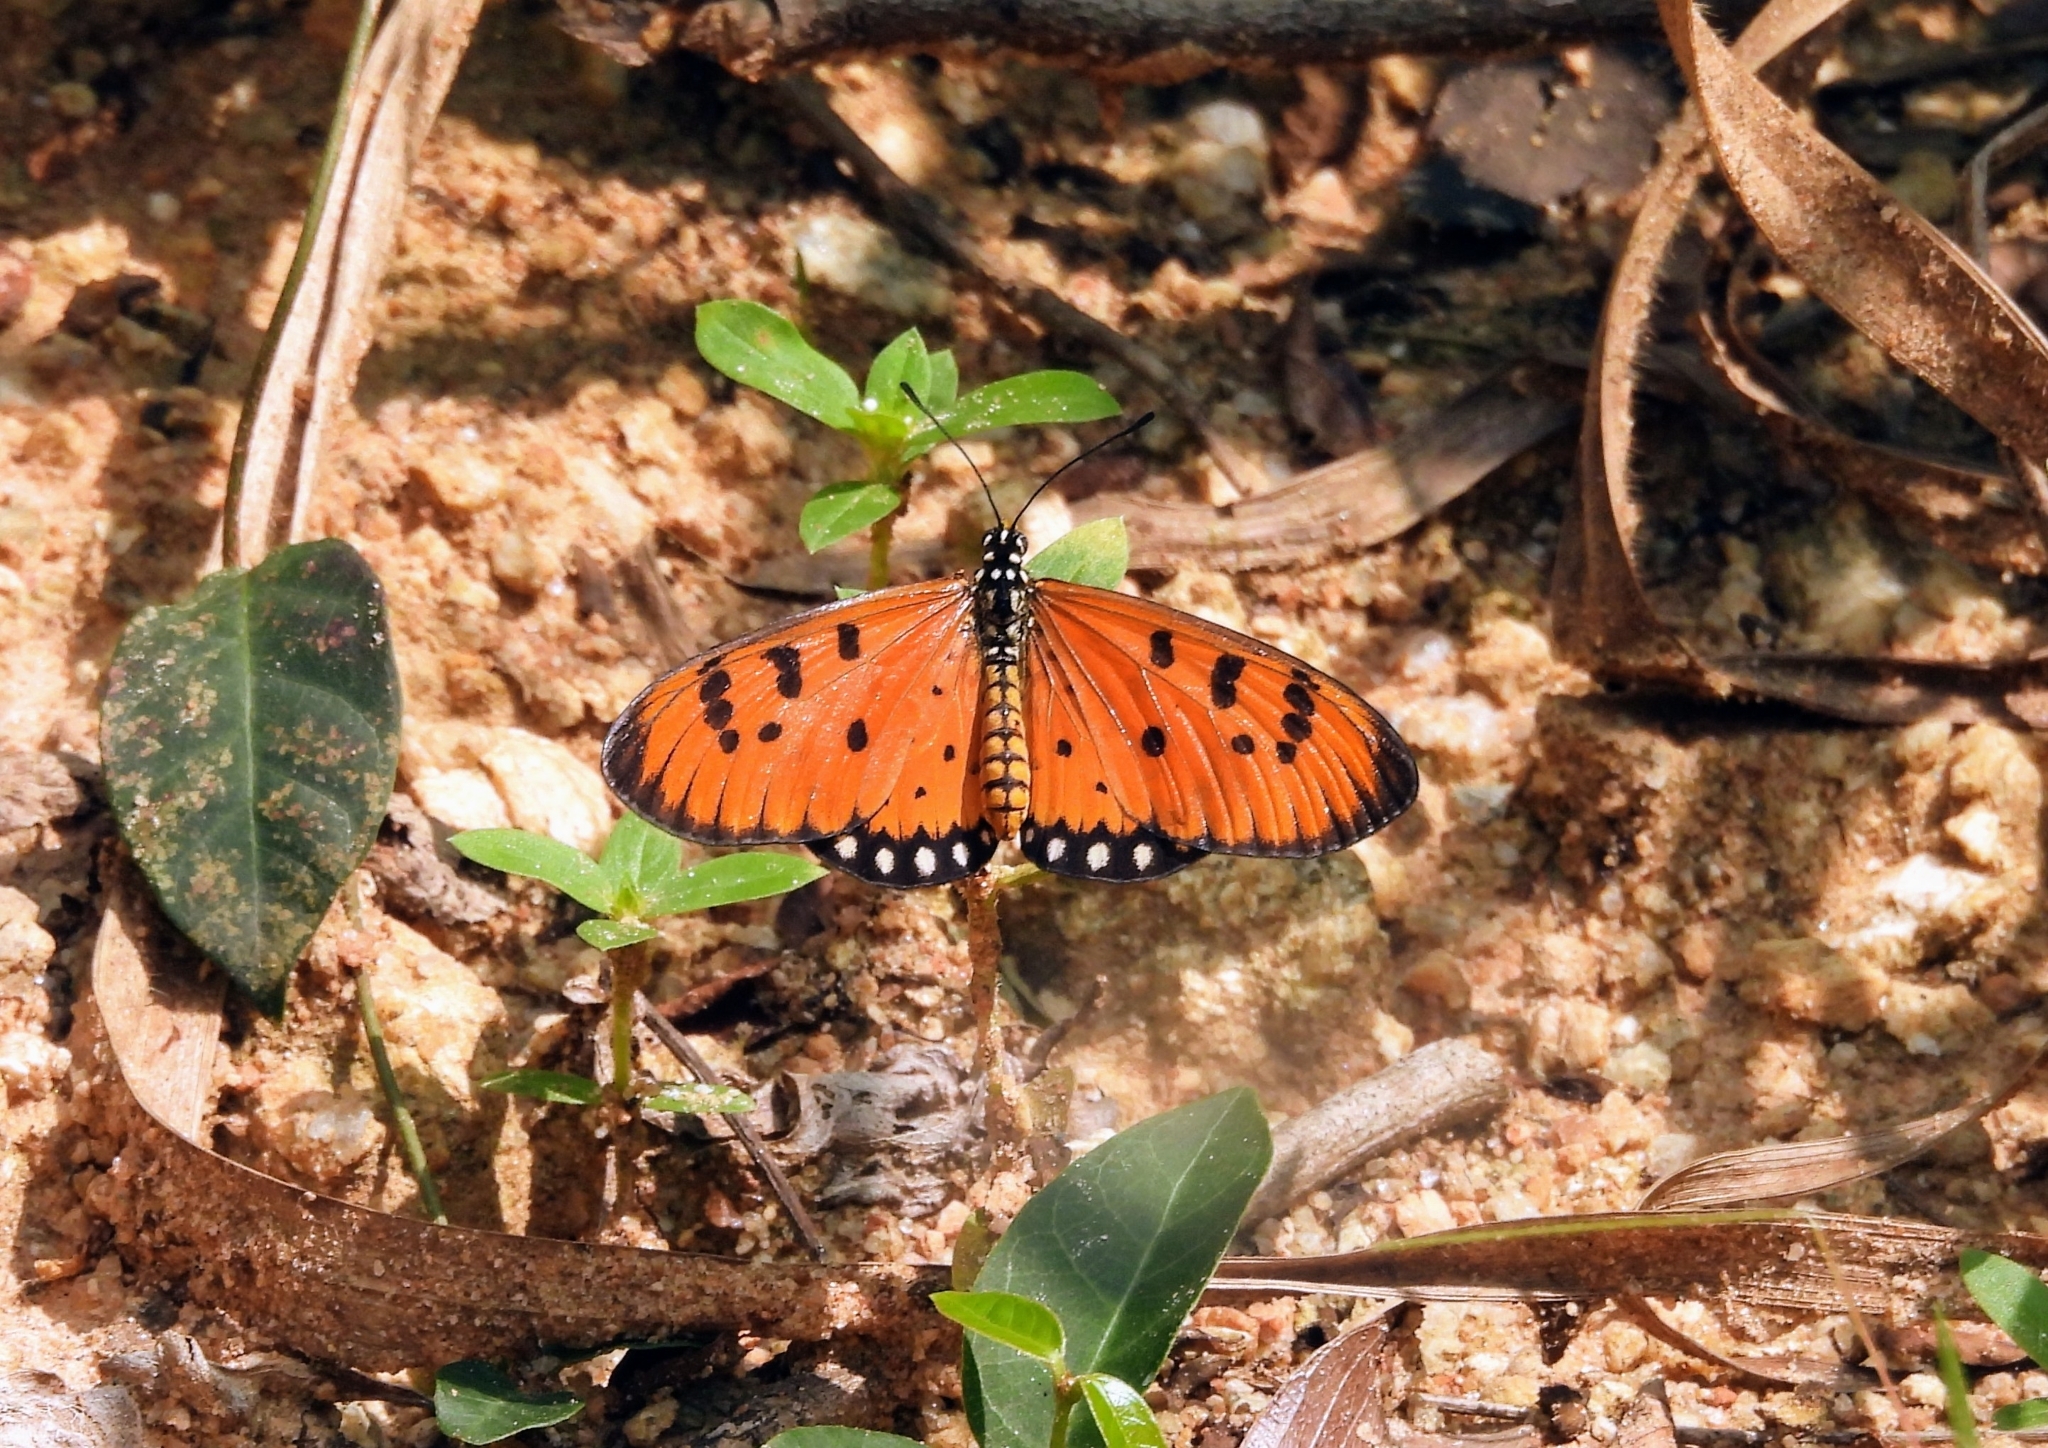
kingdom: Animalia
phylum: Arthropoda
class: Insecta
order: Lepidoptera
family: Nymphalidae
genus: Acraea
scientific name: Acraea terpsicore
